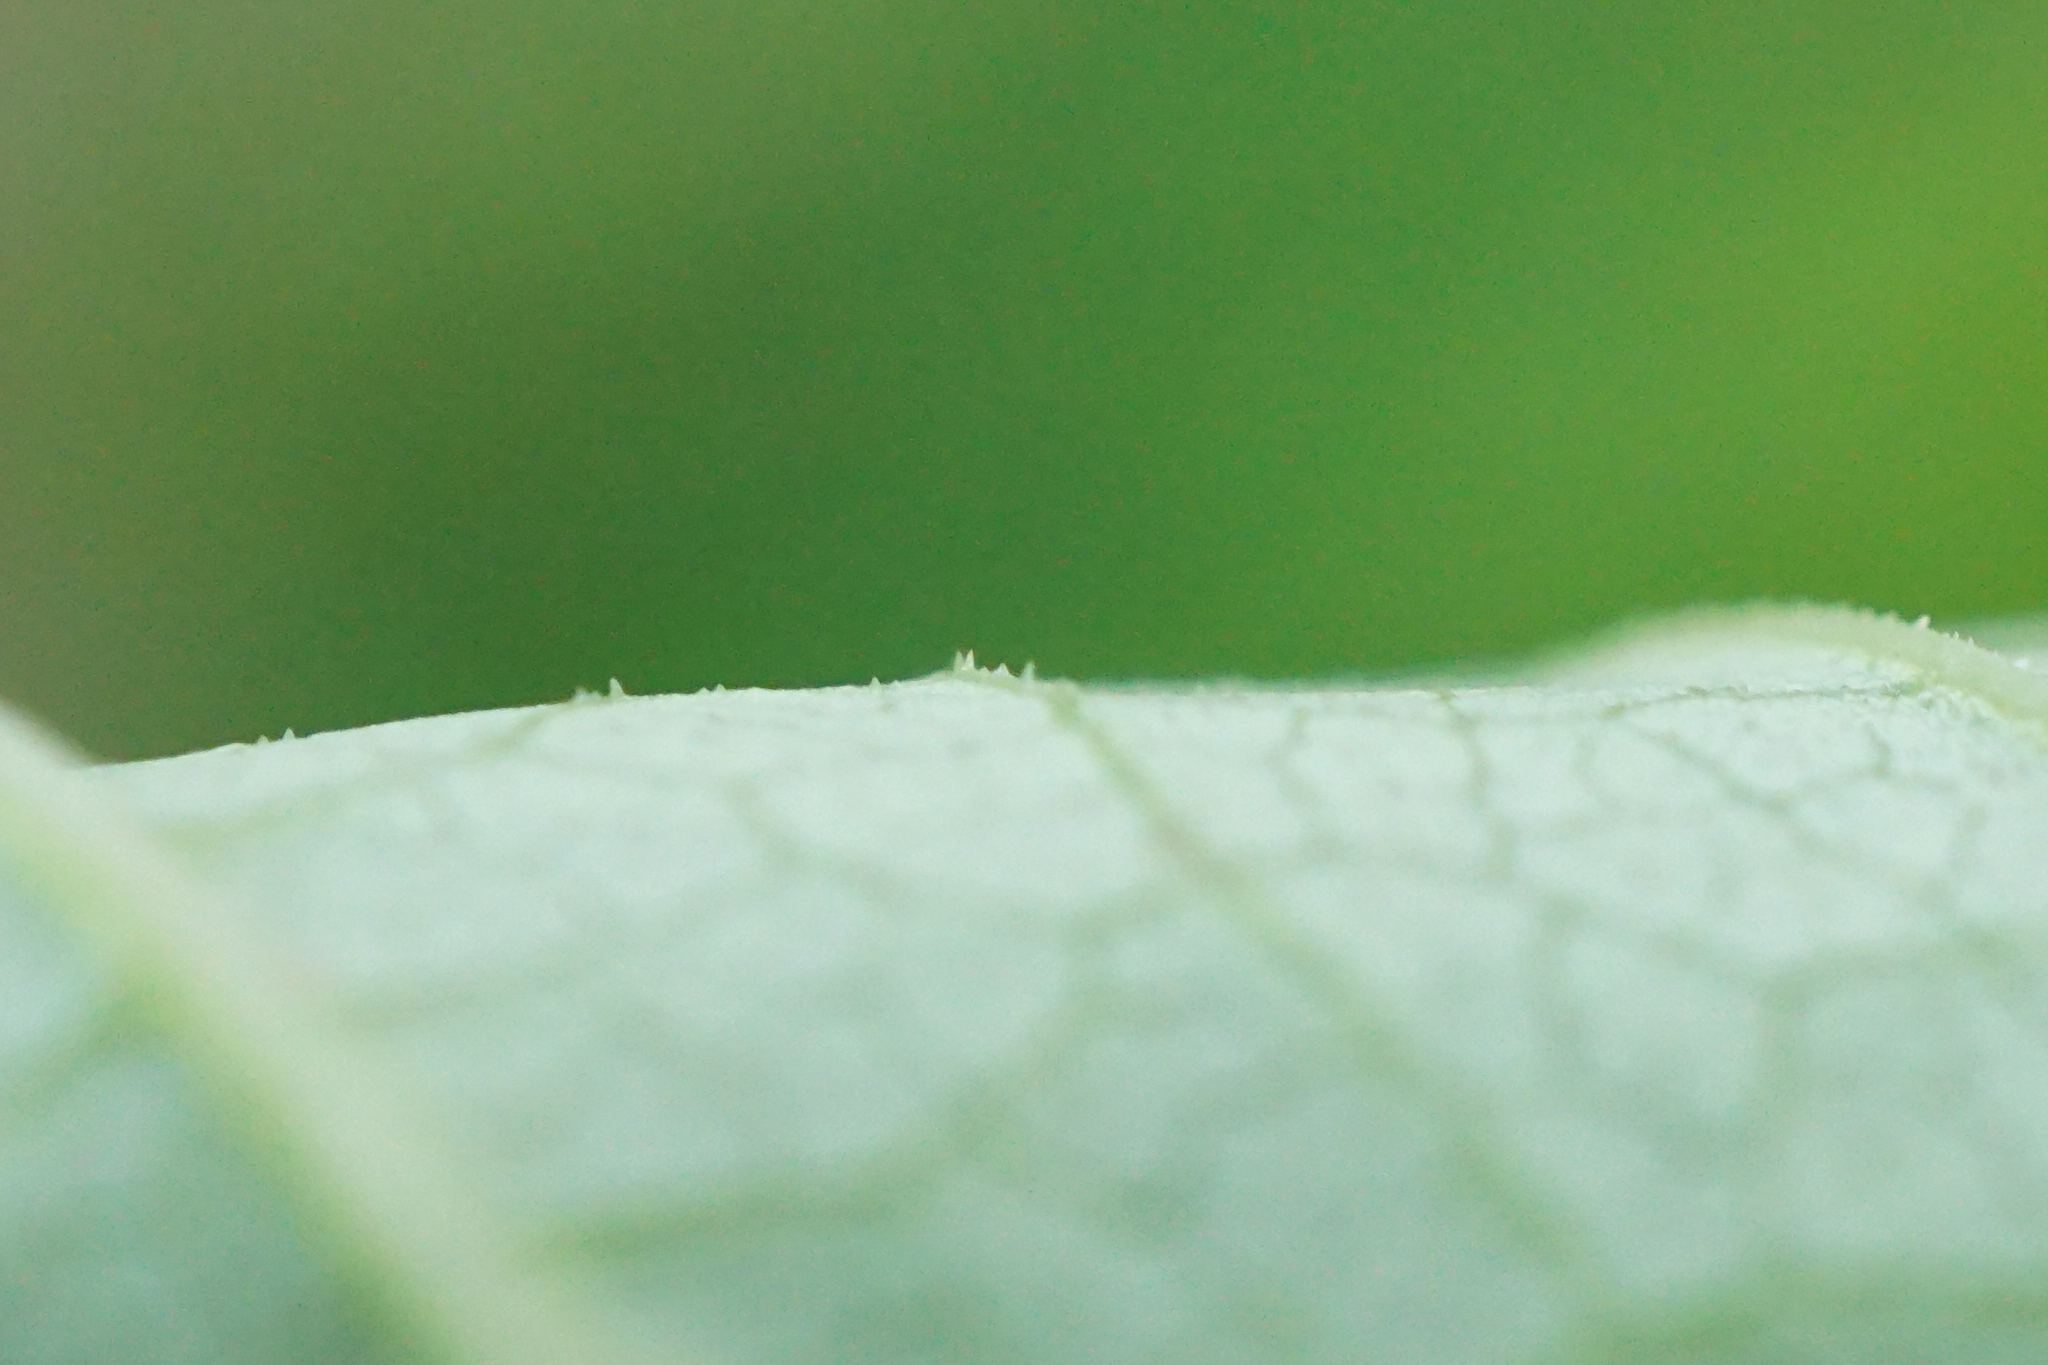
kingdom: Plantae
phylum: Tracheophyta
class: Magnoliopsida
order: Caryophyllales
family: Polygonaceae
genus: Reynoutria
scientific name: Reynoutria bohemica
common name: Bohemian knotweed
